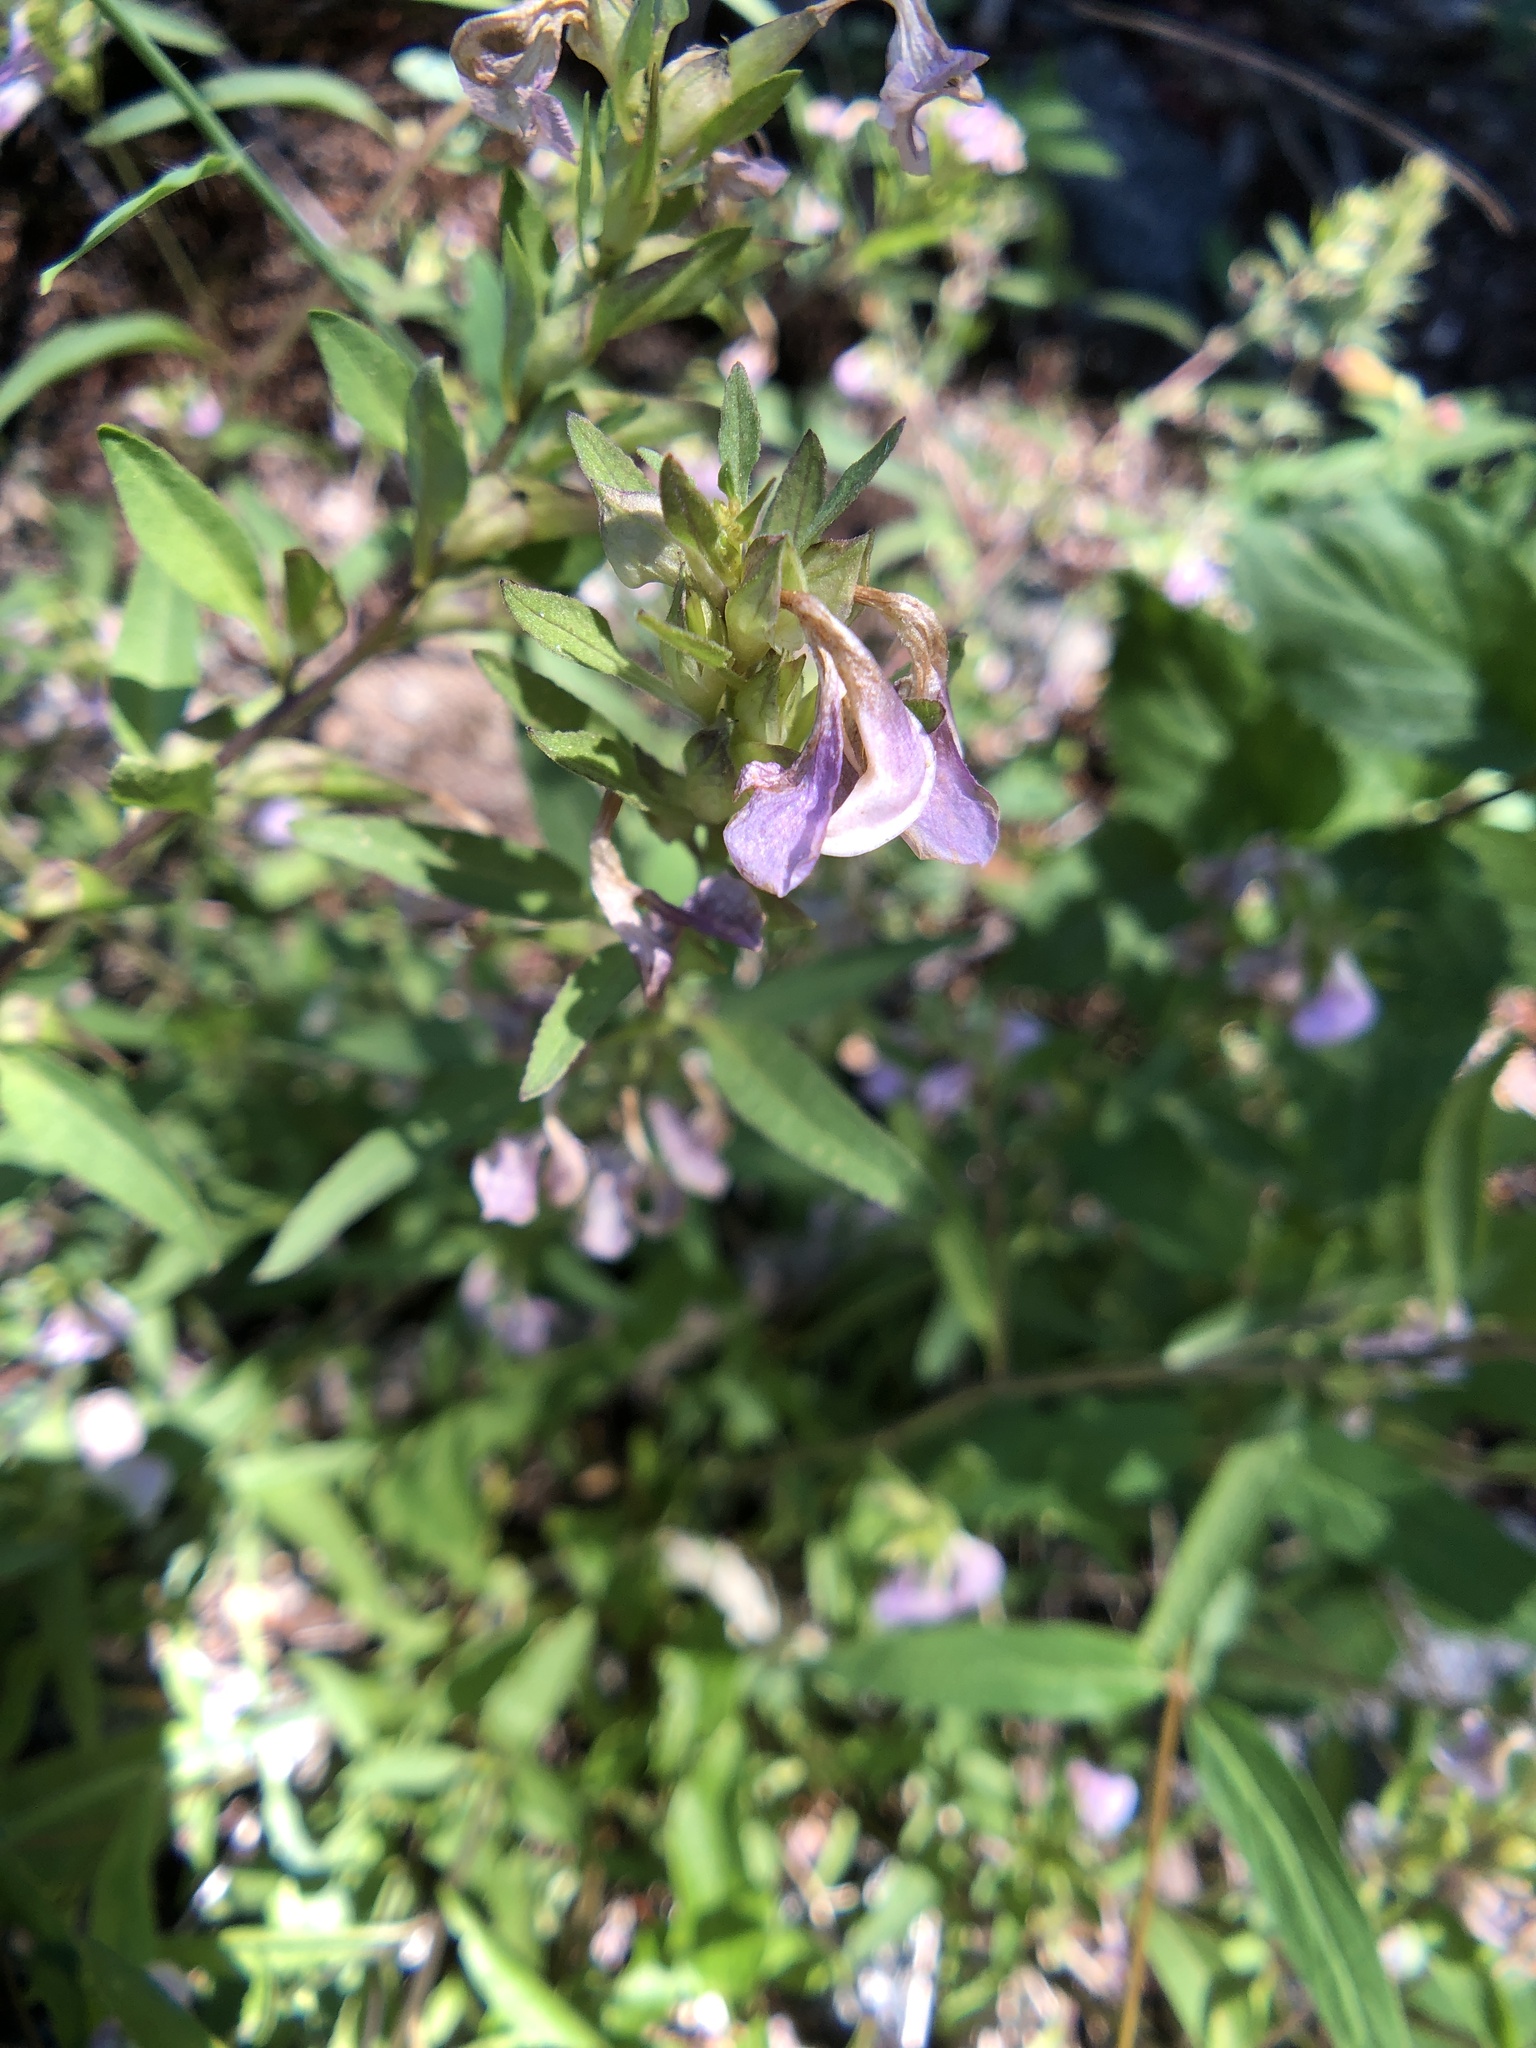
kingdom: Plantae
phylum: Tracheophyta
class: Magnoliopsida
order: Lamiales
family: Orobanchaceae
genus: Pedicularis
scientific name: Pedicularis racemosa
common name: Leafy lousewort
